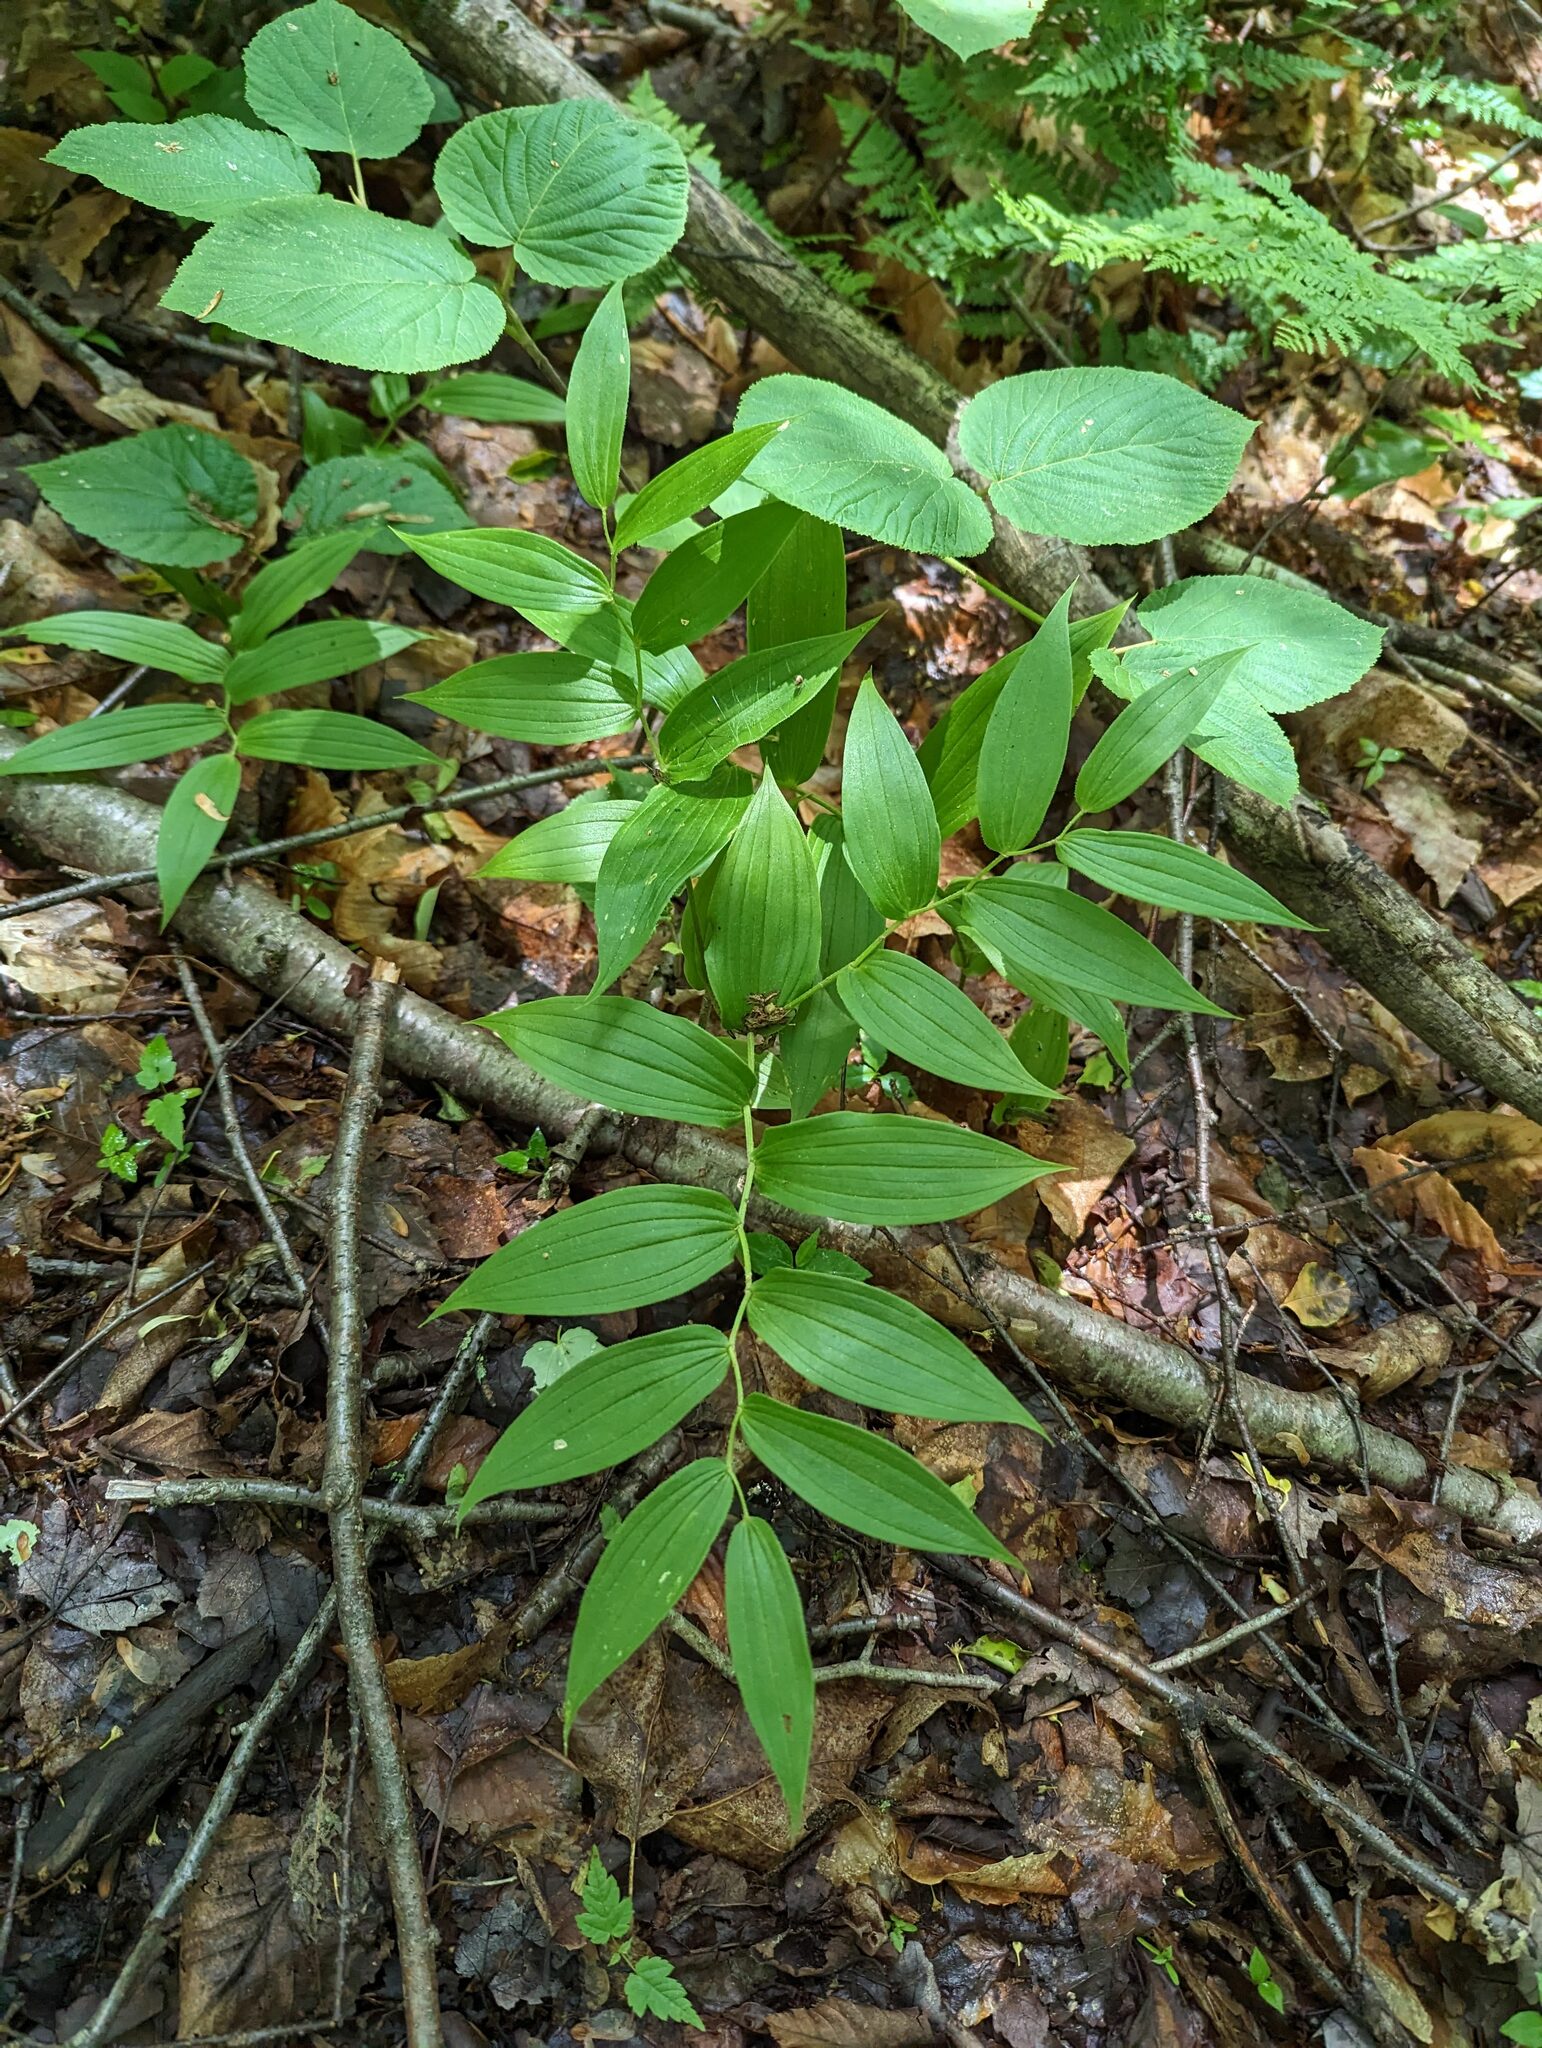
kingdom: Plantae
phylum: Tracheophyta
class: Liliopsida
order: Liliales
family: Liliaceae
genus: Streptopus
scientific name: Streptopus lanceolatus
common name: Rose mandarin
